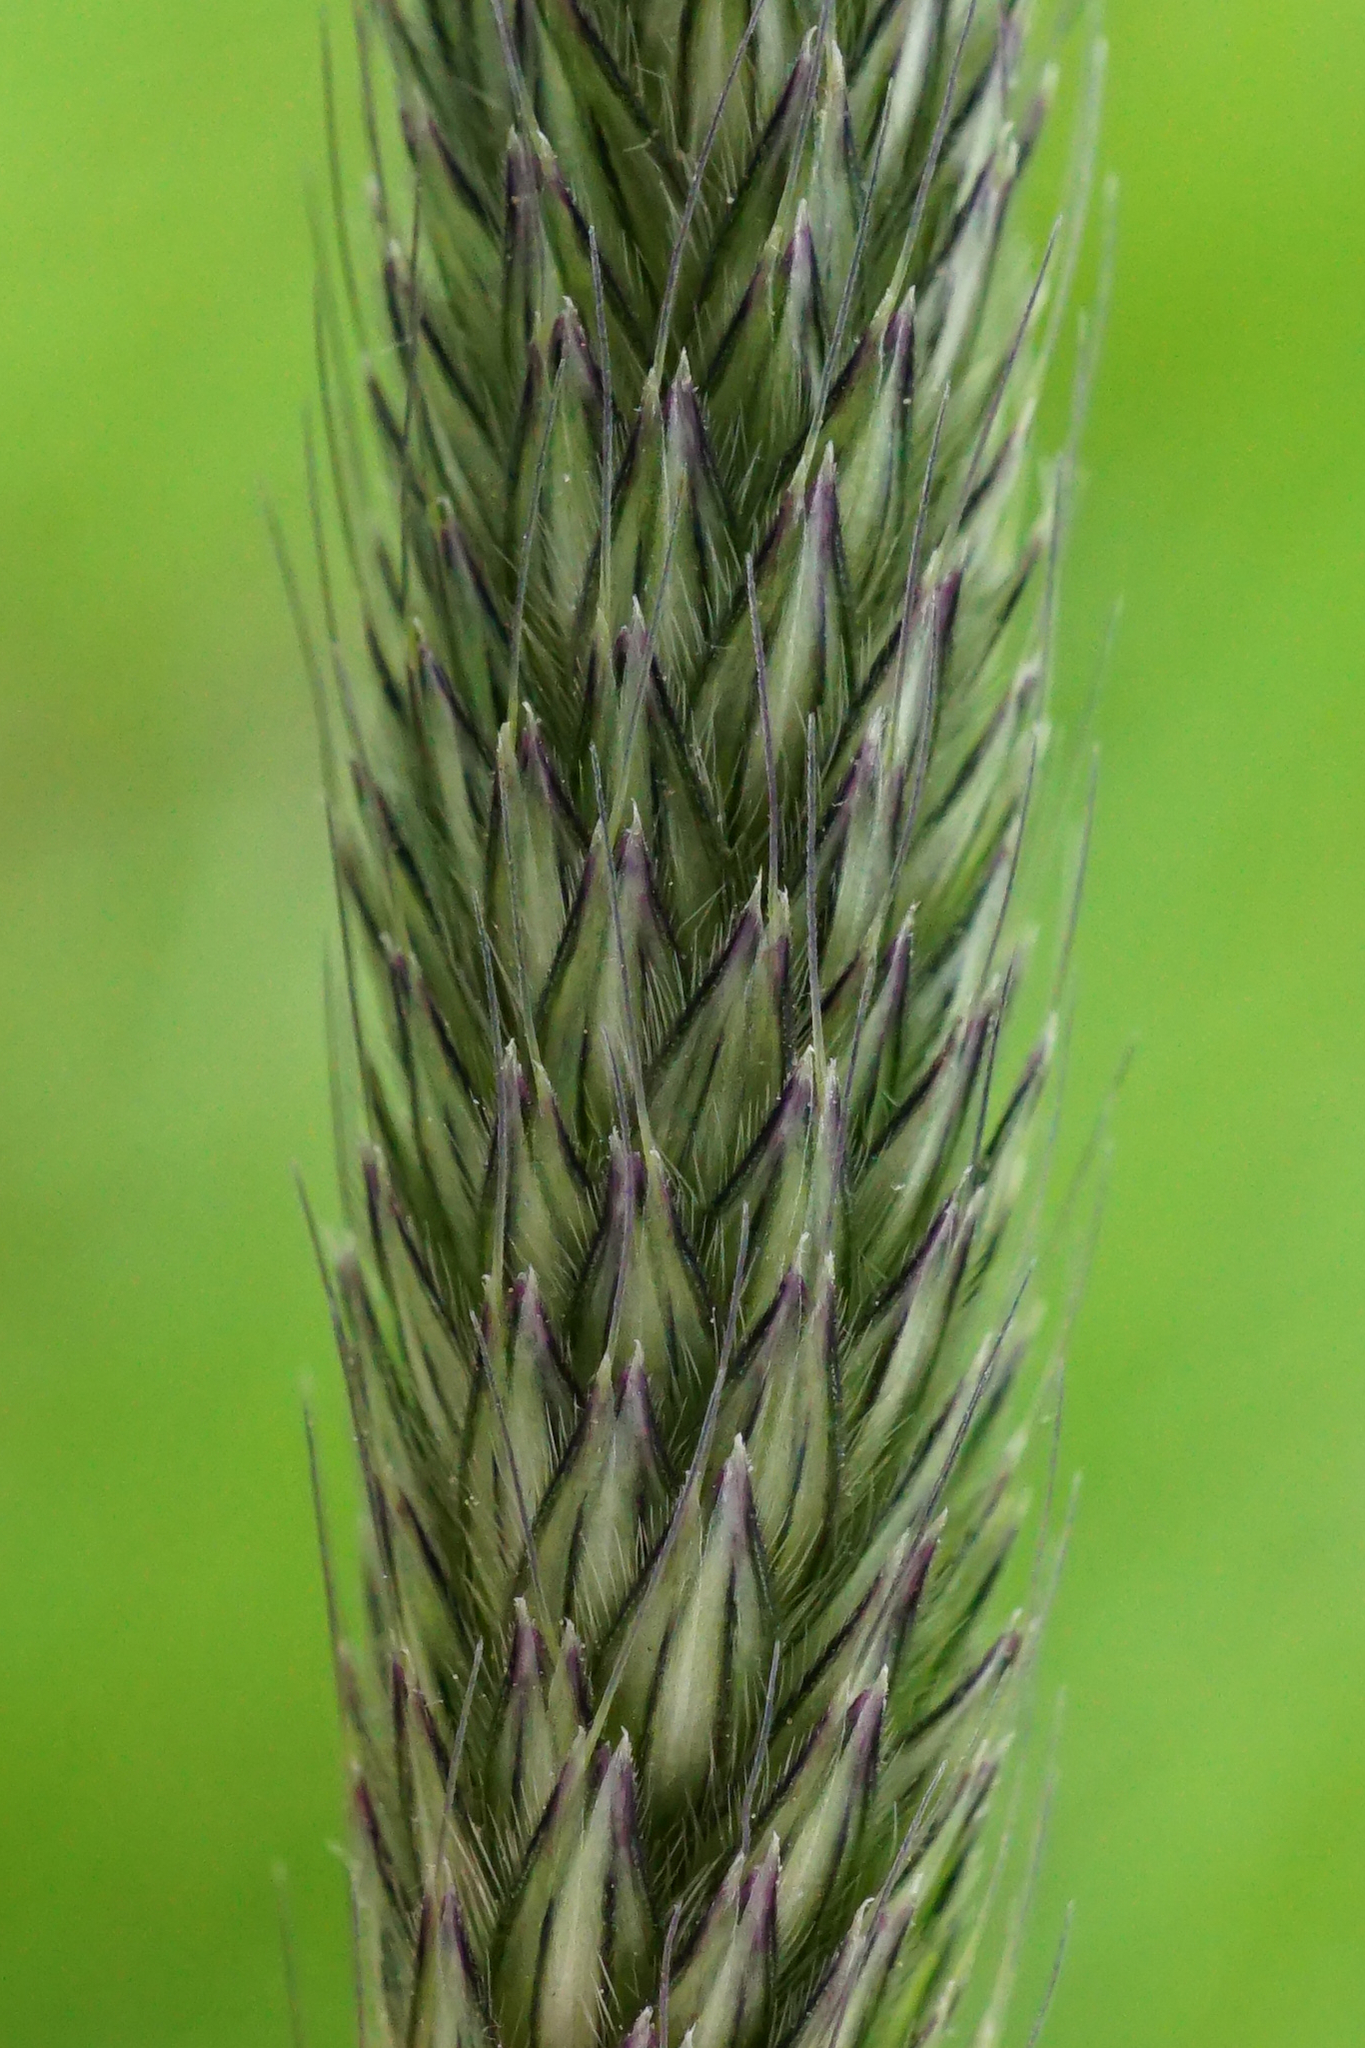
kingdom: Plantae
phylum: Tracheophyta
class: Liliopsida
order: Poales
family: Poaceae
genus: Alopecurus
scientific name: Alopecurus pratensis
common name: Meadow foxtail
